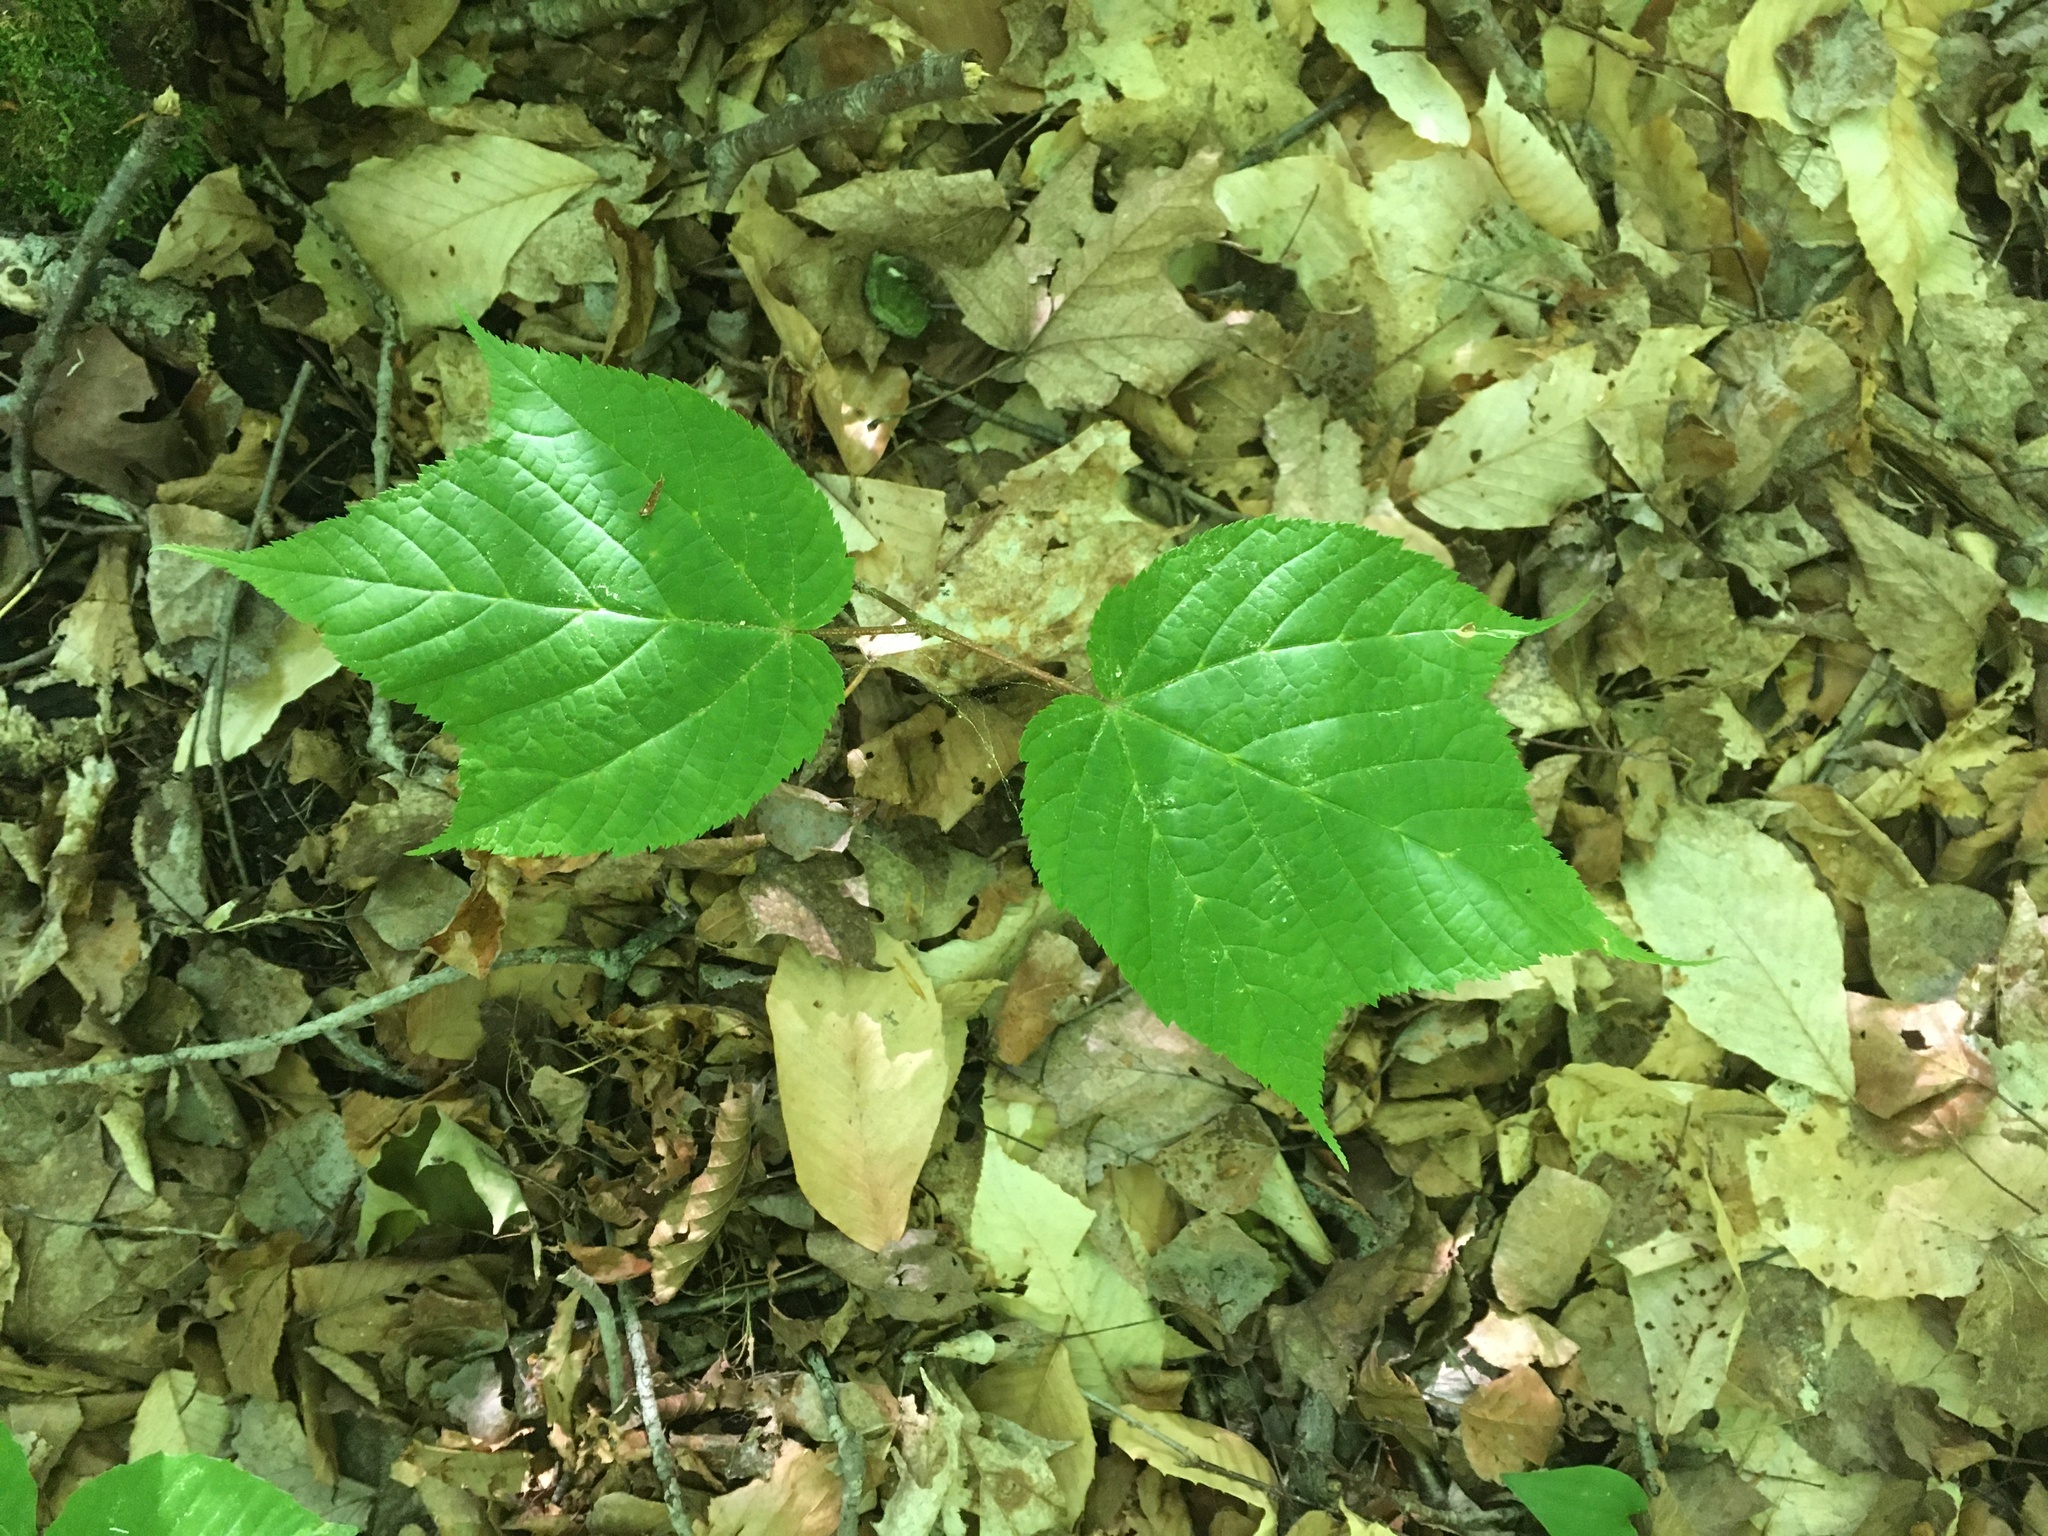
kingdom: Plantae
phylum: Tracheophyta
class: Magnoliopsida
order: Sapindales
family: Sapindaceae
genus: Acer
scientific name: Acer pensylvanicum
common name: Moosewood
